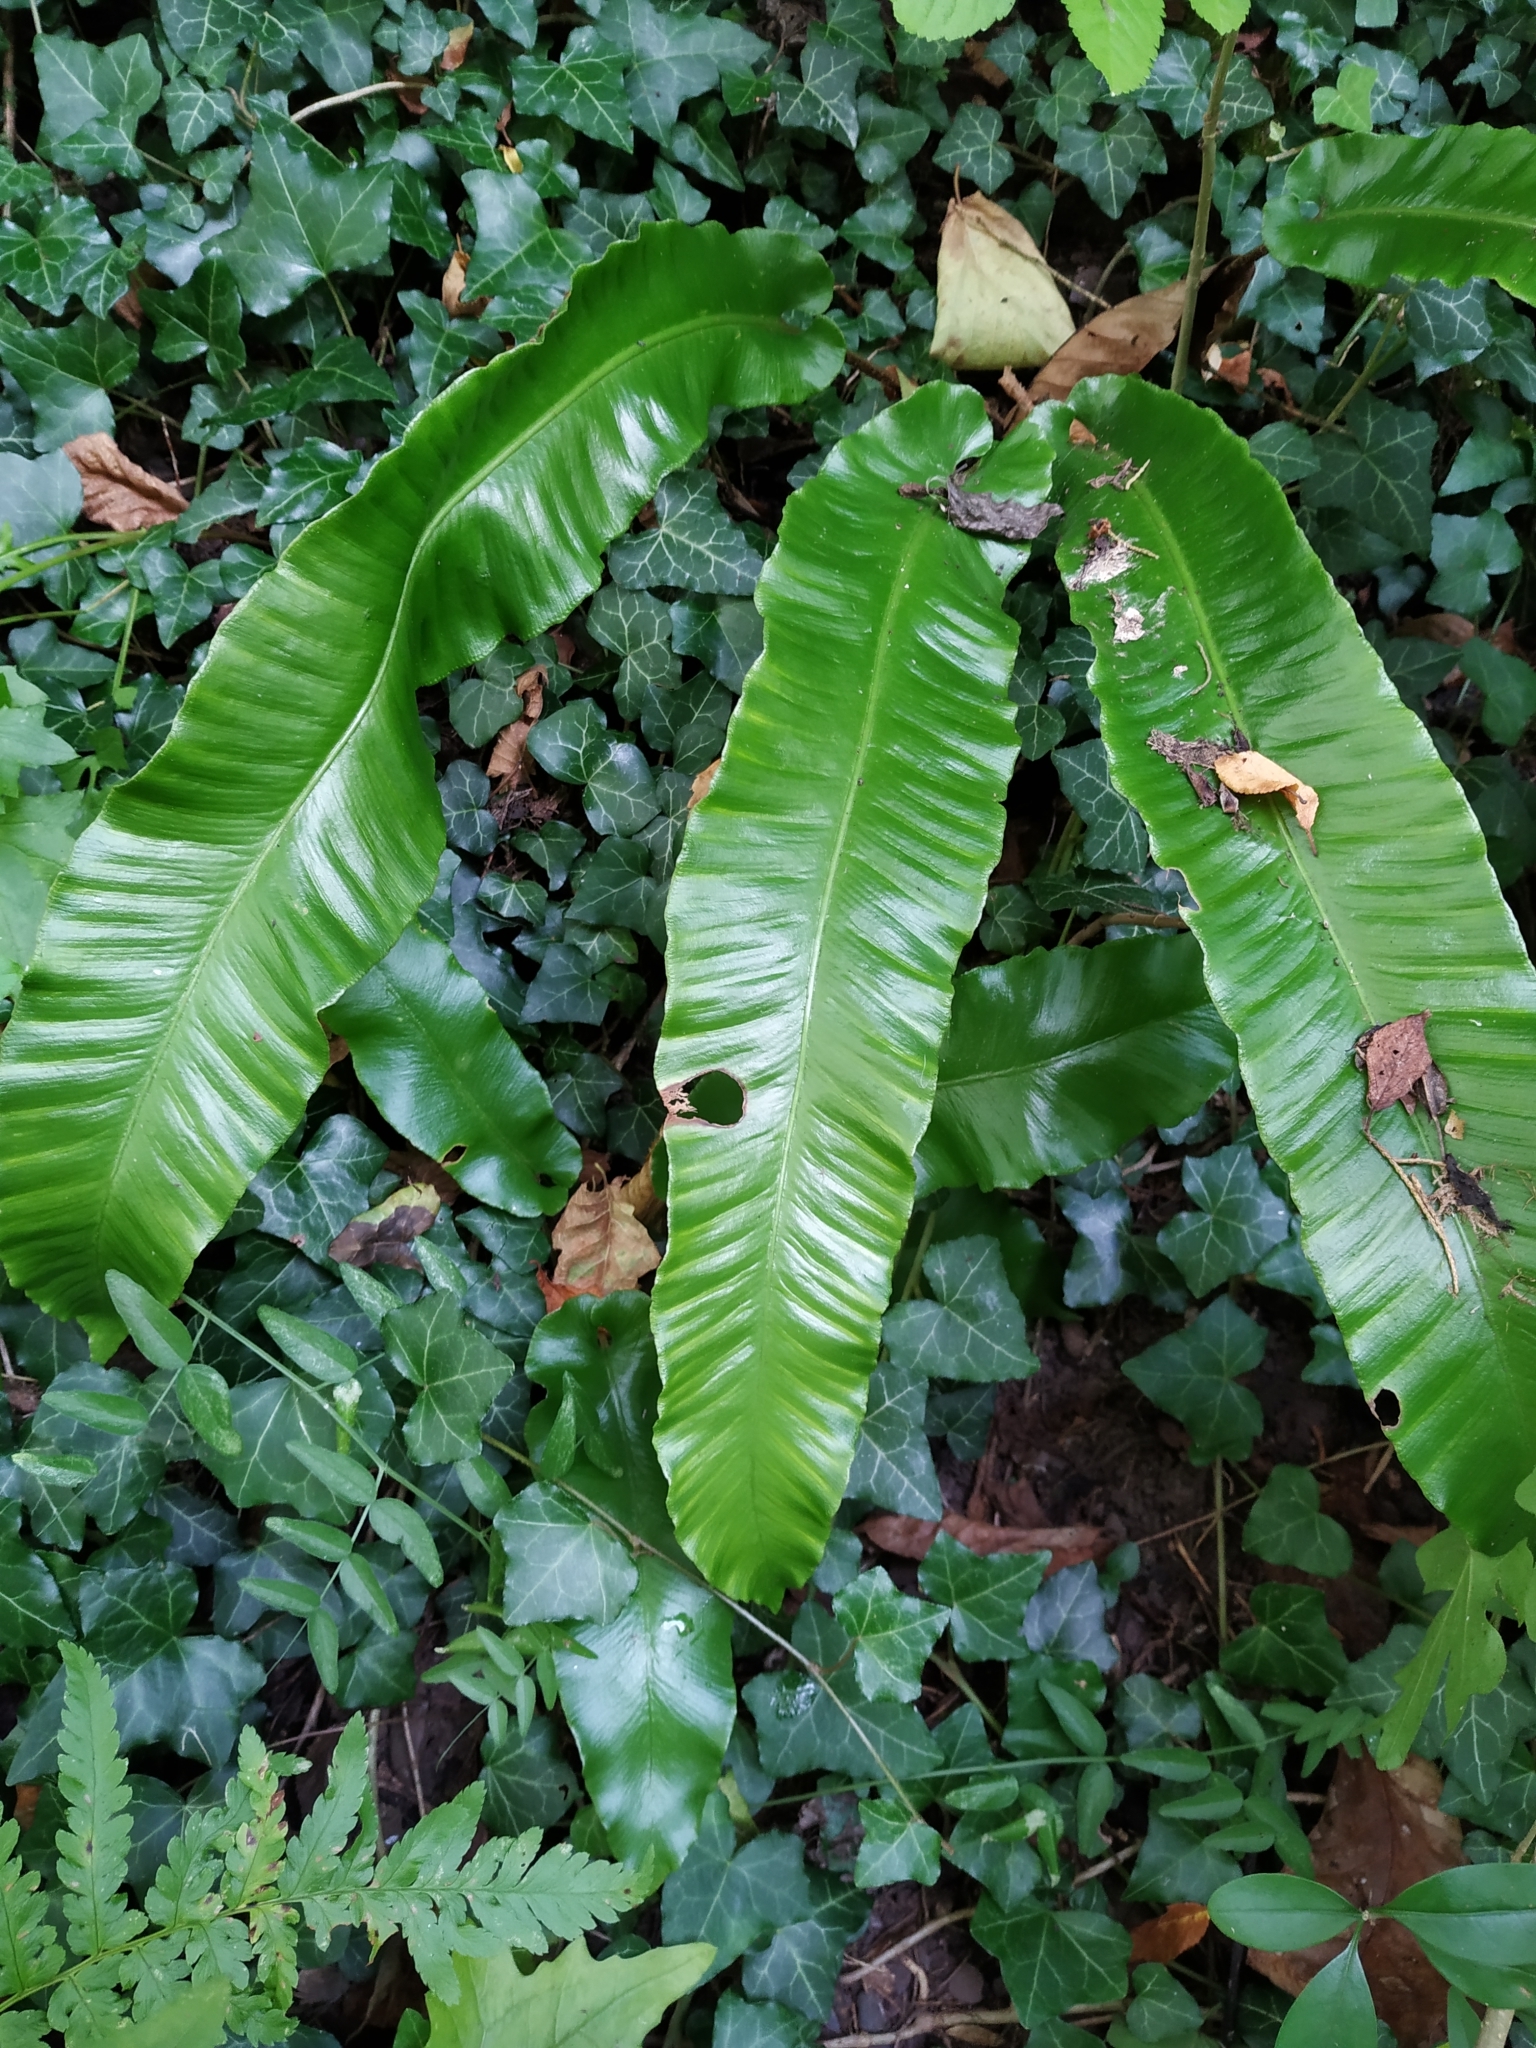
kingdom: Plantae
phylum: Tracheophyta
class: Polypodiopsida
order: Polypodiales
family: Aspleniaceae
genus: Asplenium
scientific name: Asplenium scolopendrium
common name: Hart's-tongue fern
